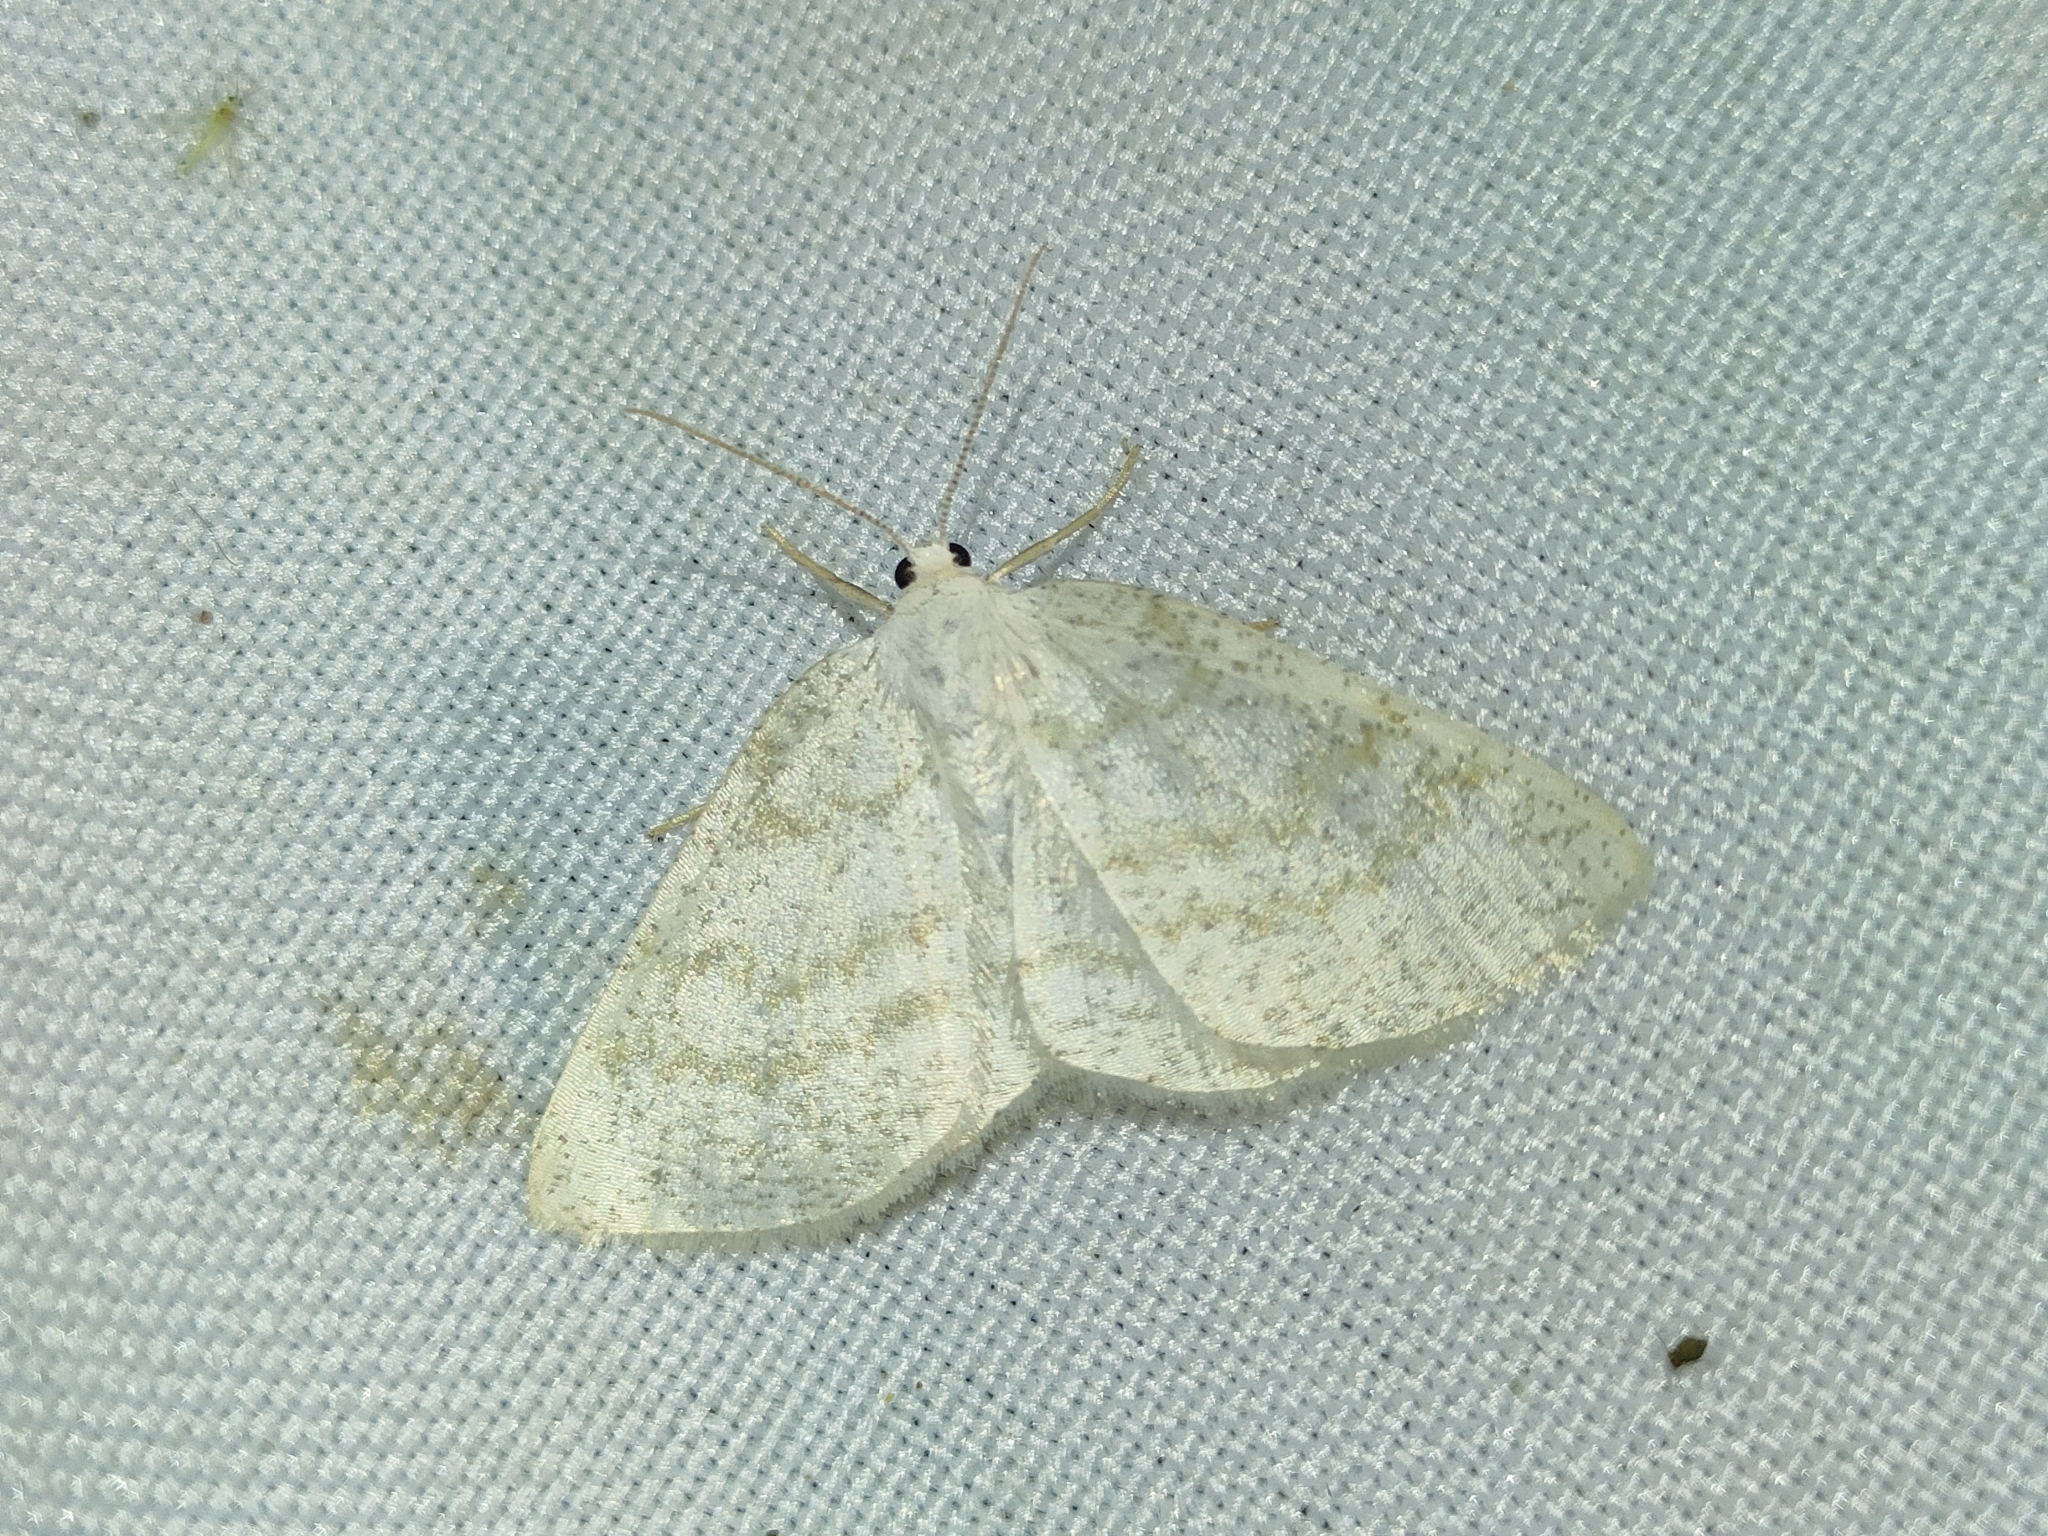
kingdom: Animalia
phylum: Arthropoda
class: Insecta
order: Lepidoptera
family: Geometridae
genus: Cabera
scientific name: Cabera exanthemata
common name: Common wave
